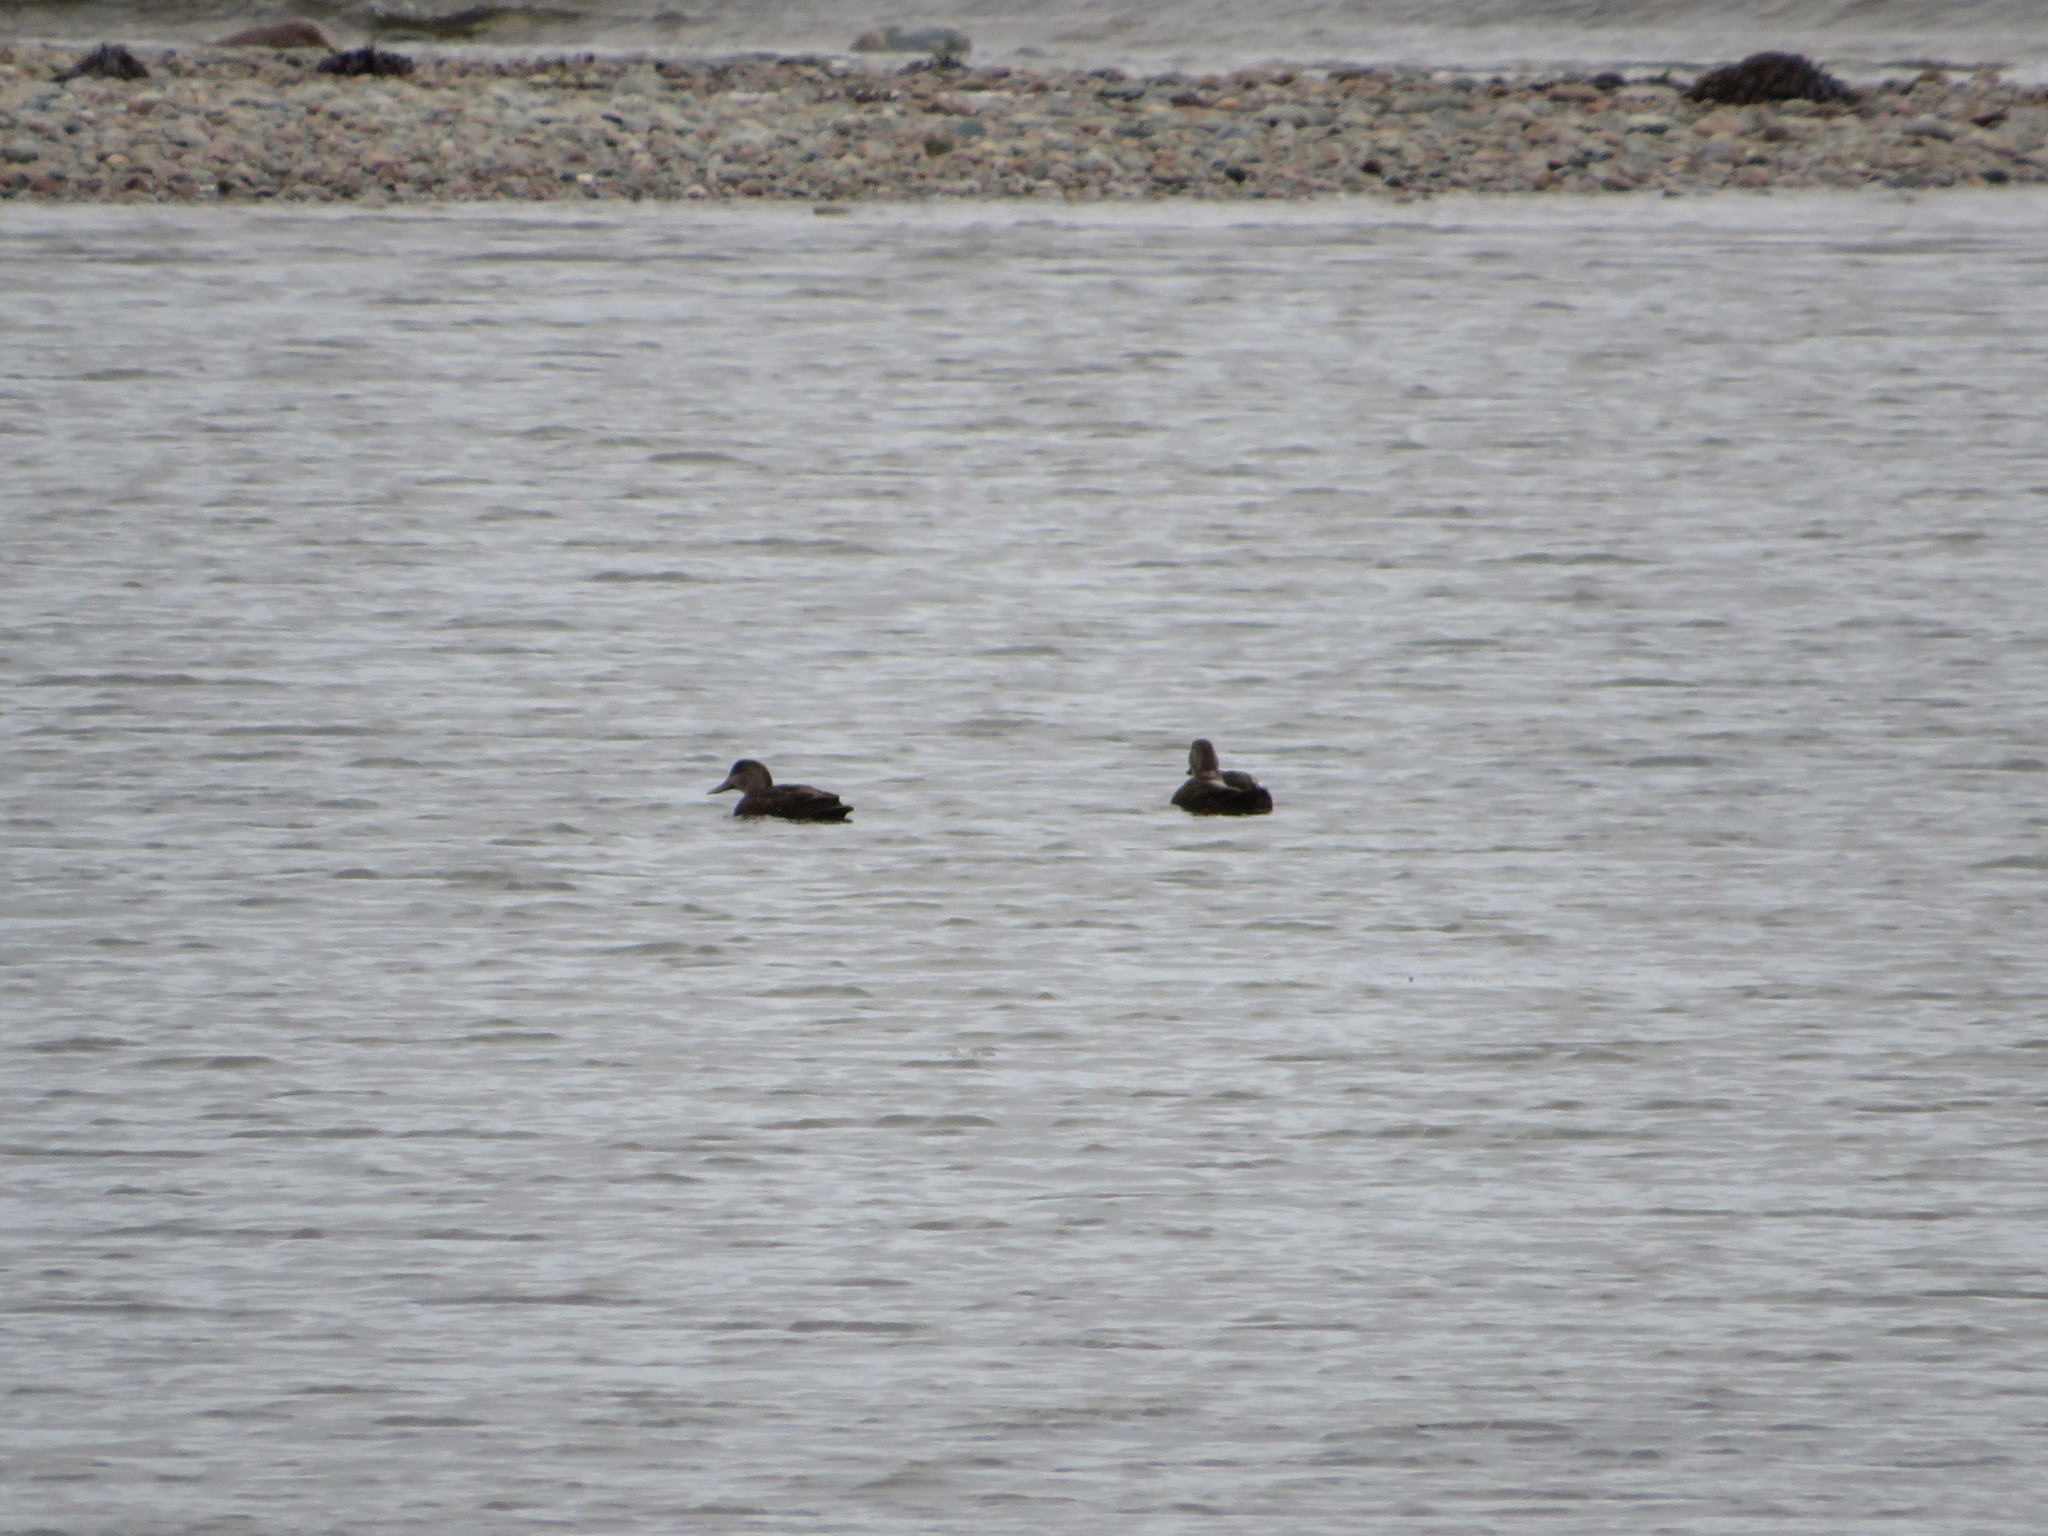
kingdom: Animalia
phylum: Chordata
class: Aves
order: Anseriformes
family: Anatidae
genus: Anas
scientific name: Anas rubripes
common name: American black duck
